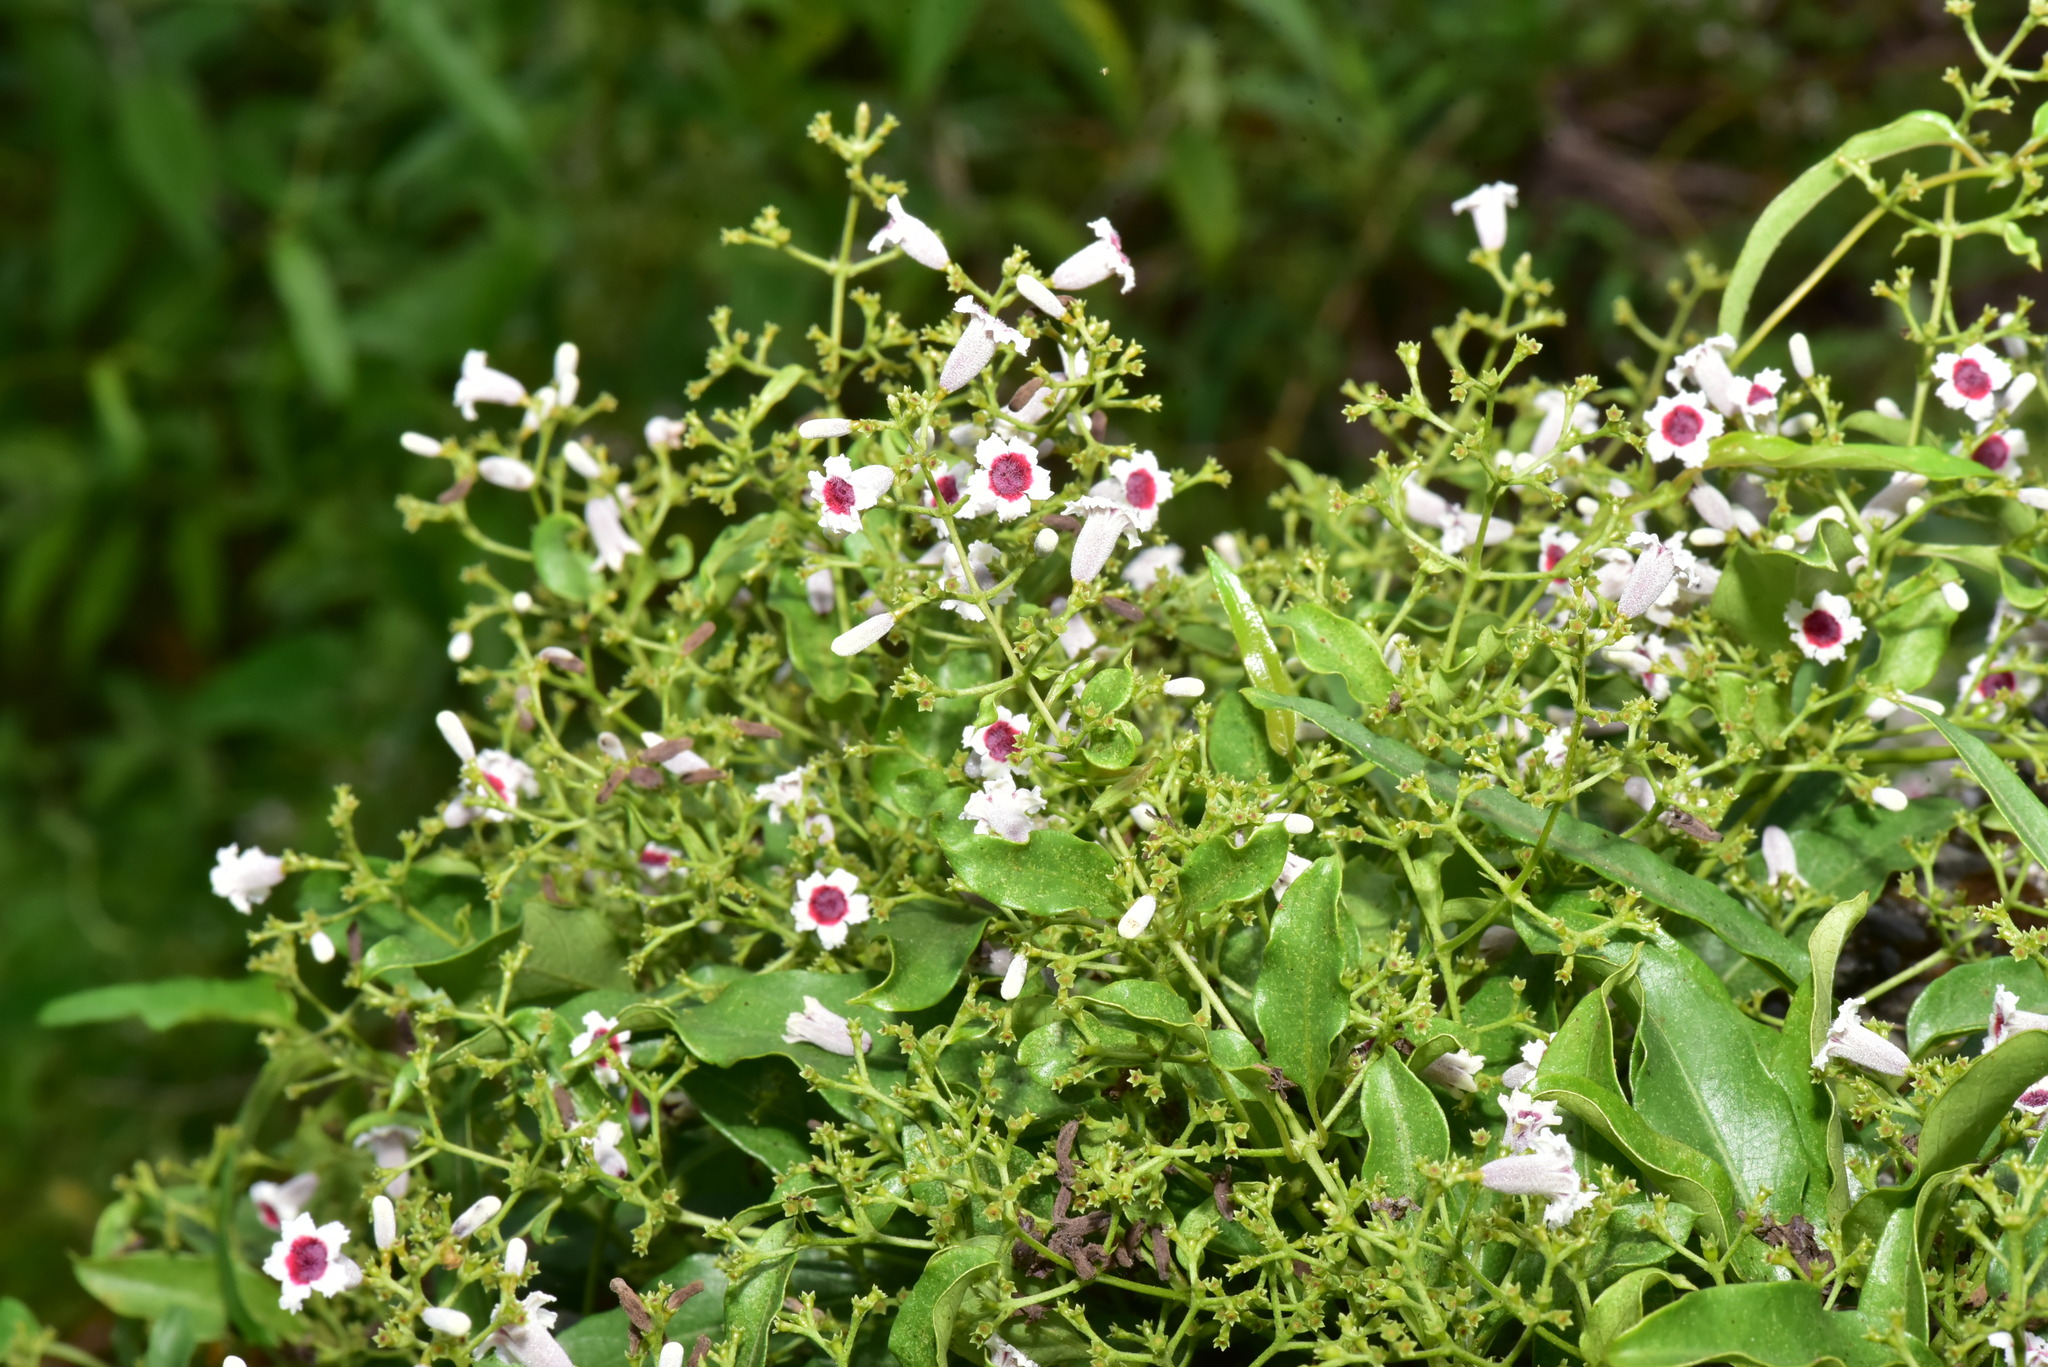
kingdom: Plantae
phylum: Tracheophyta
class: Magnoliopsida
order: Gentianales
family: Rubiaceae
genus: Paederia
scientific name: Paederia foetida
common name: Stinkvine
